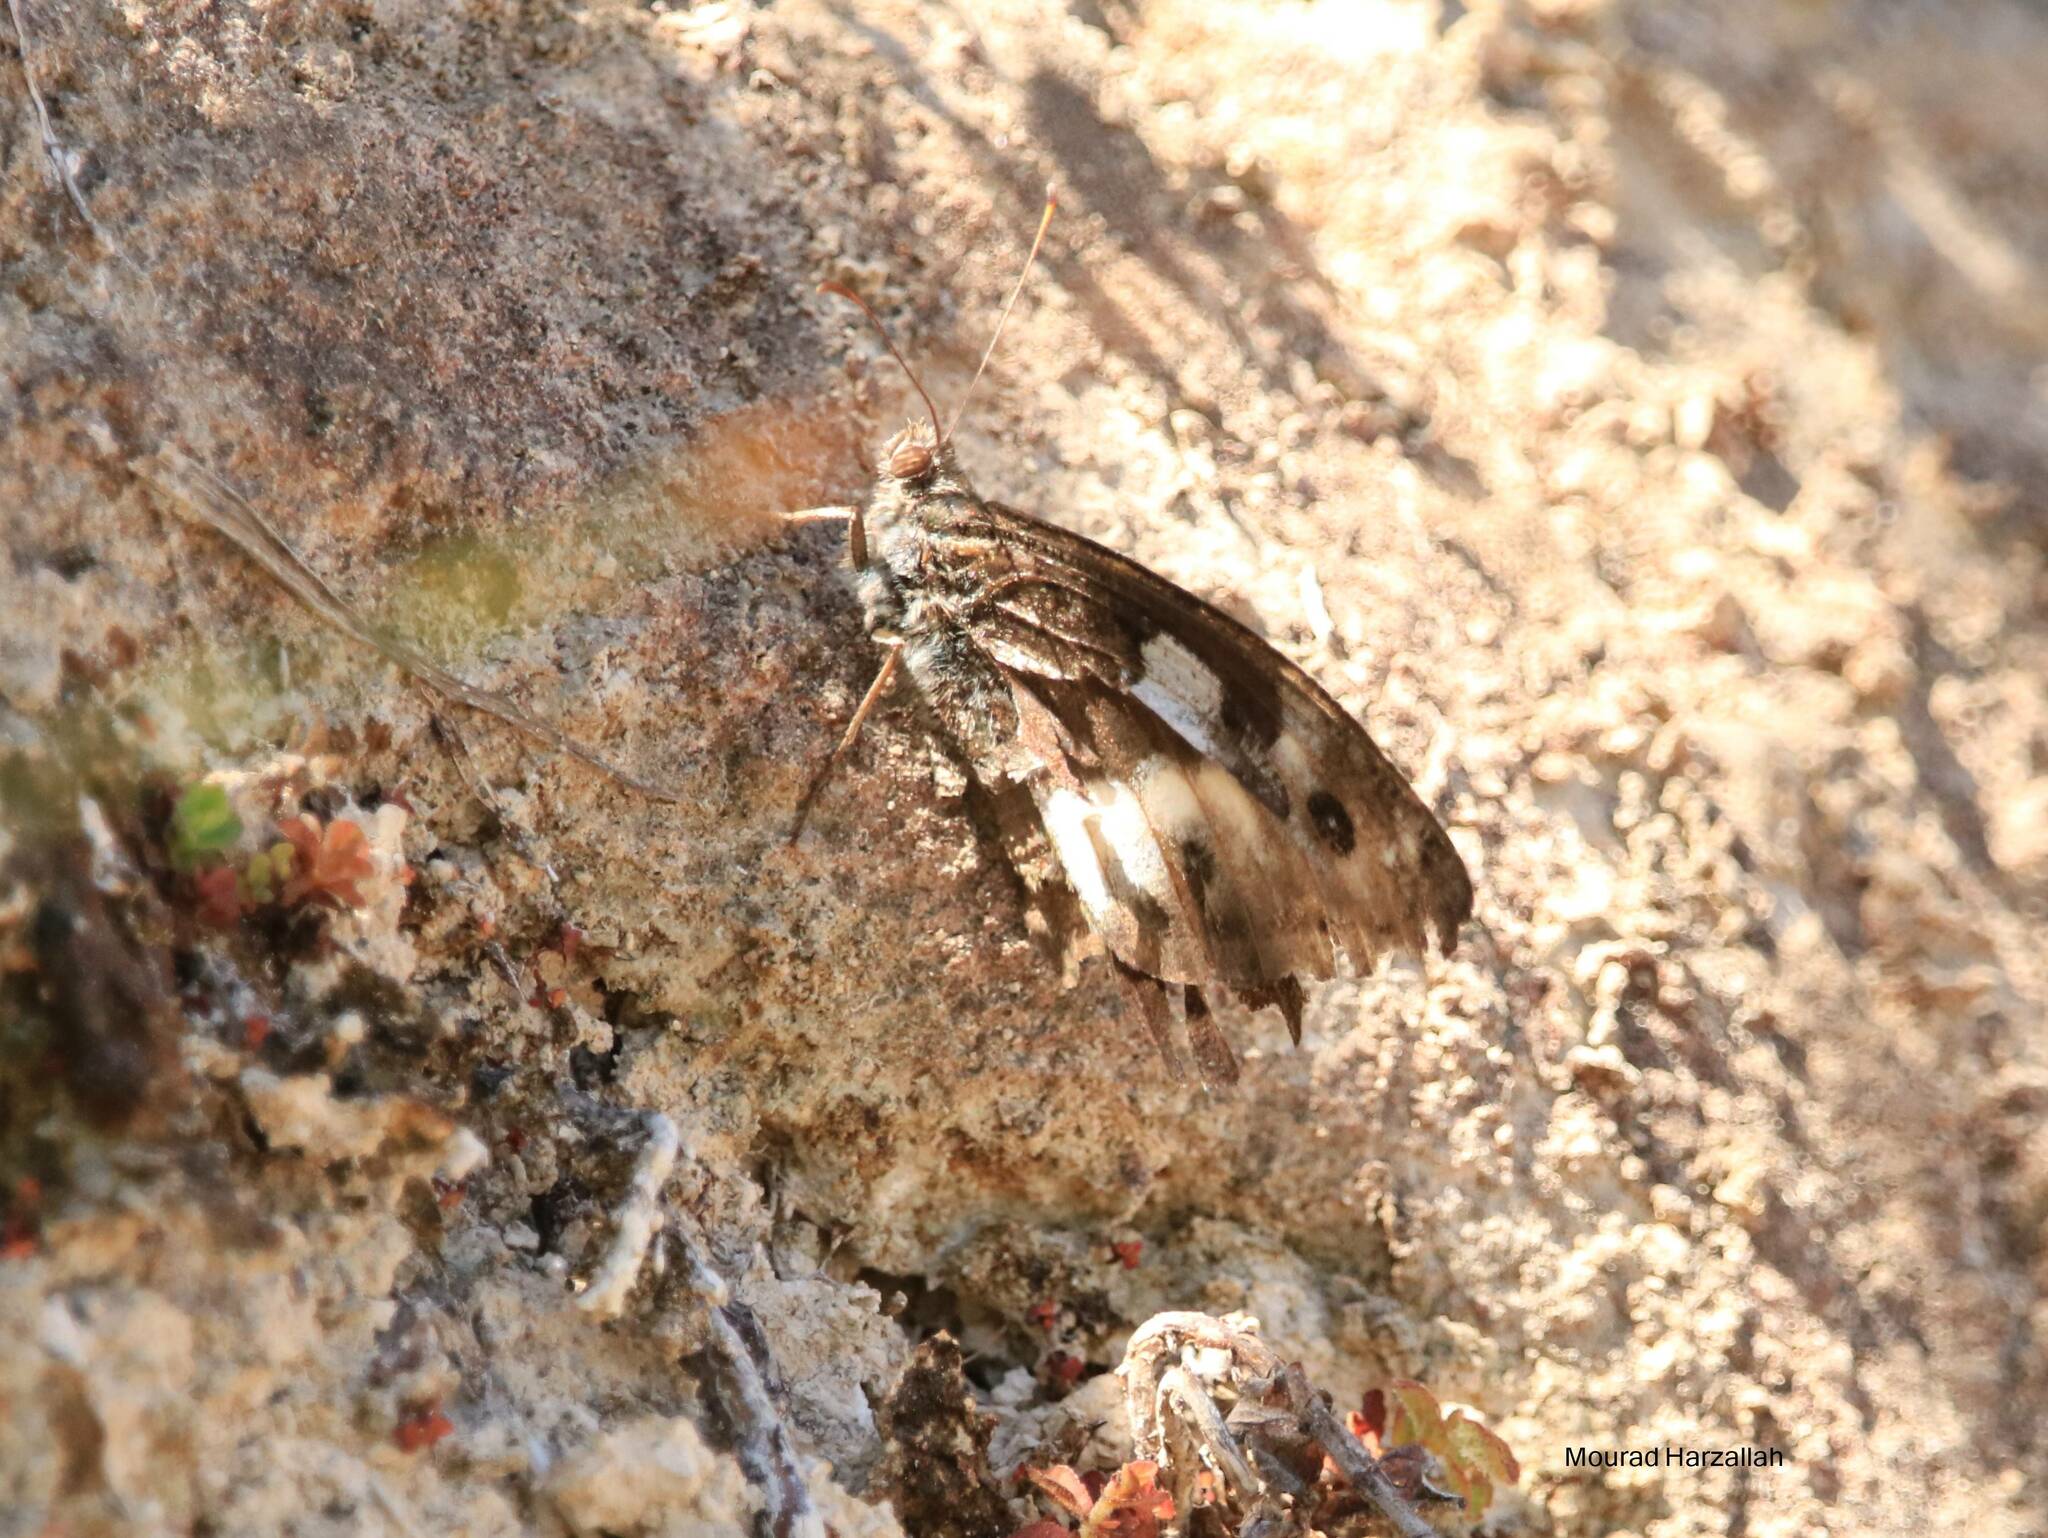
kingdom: Animalia
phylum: Arthropoda
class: Insecta
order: Lepidoptera
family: Nymphalidae
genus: Satyrus
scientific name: Satyrus briseis
